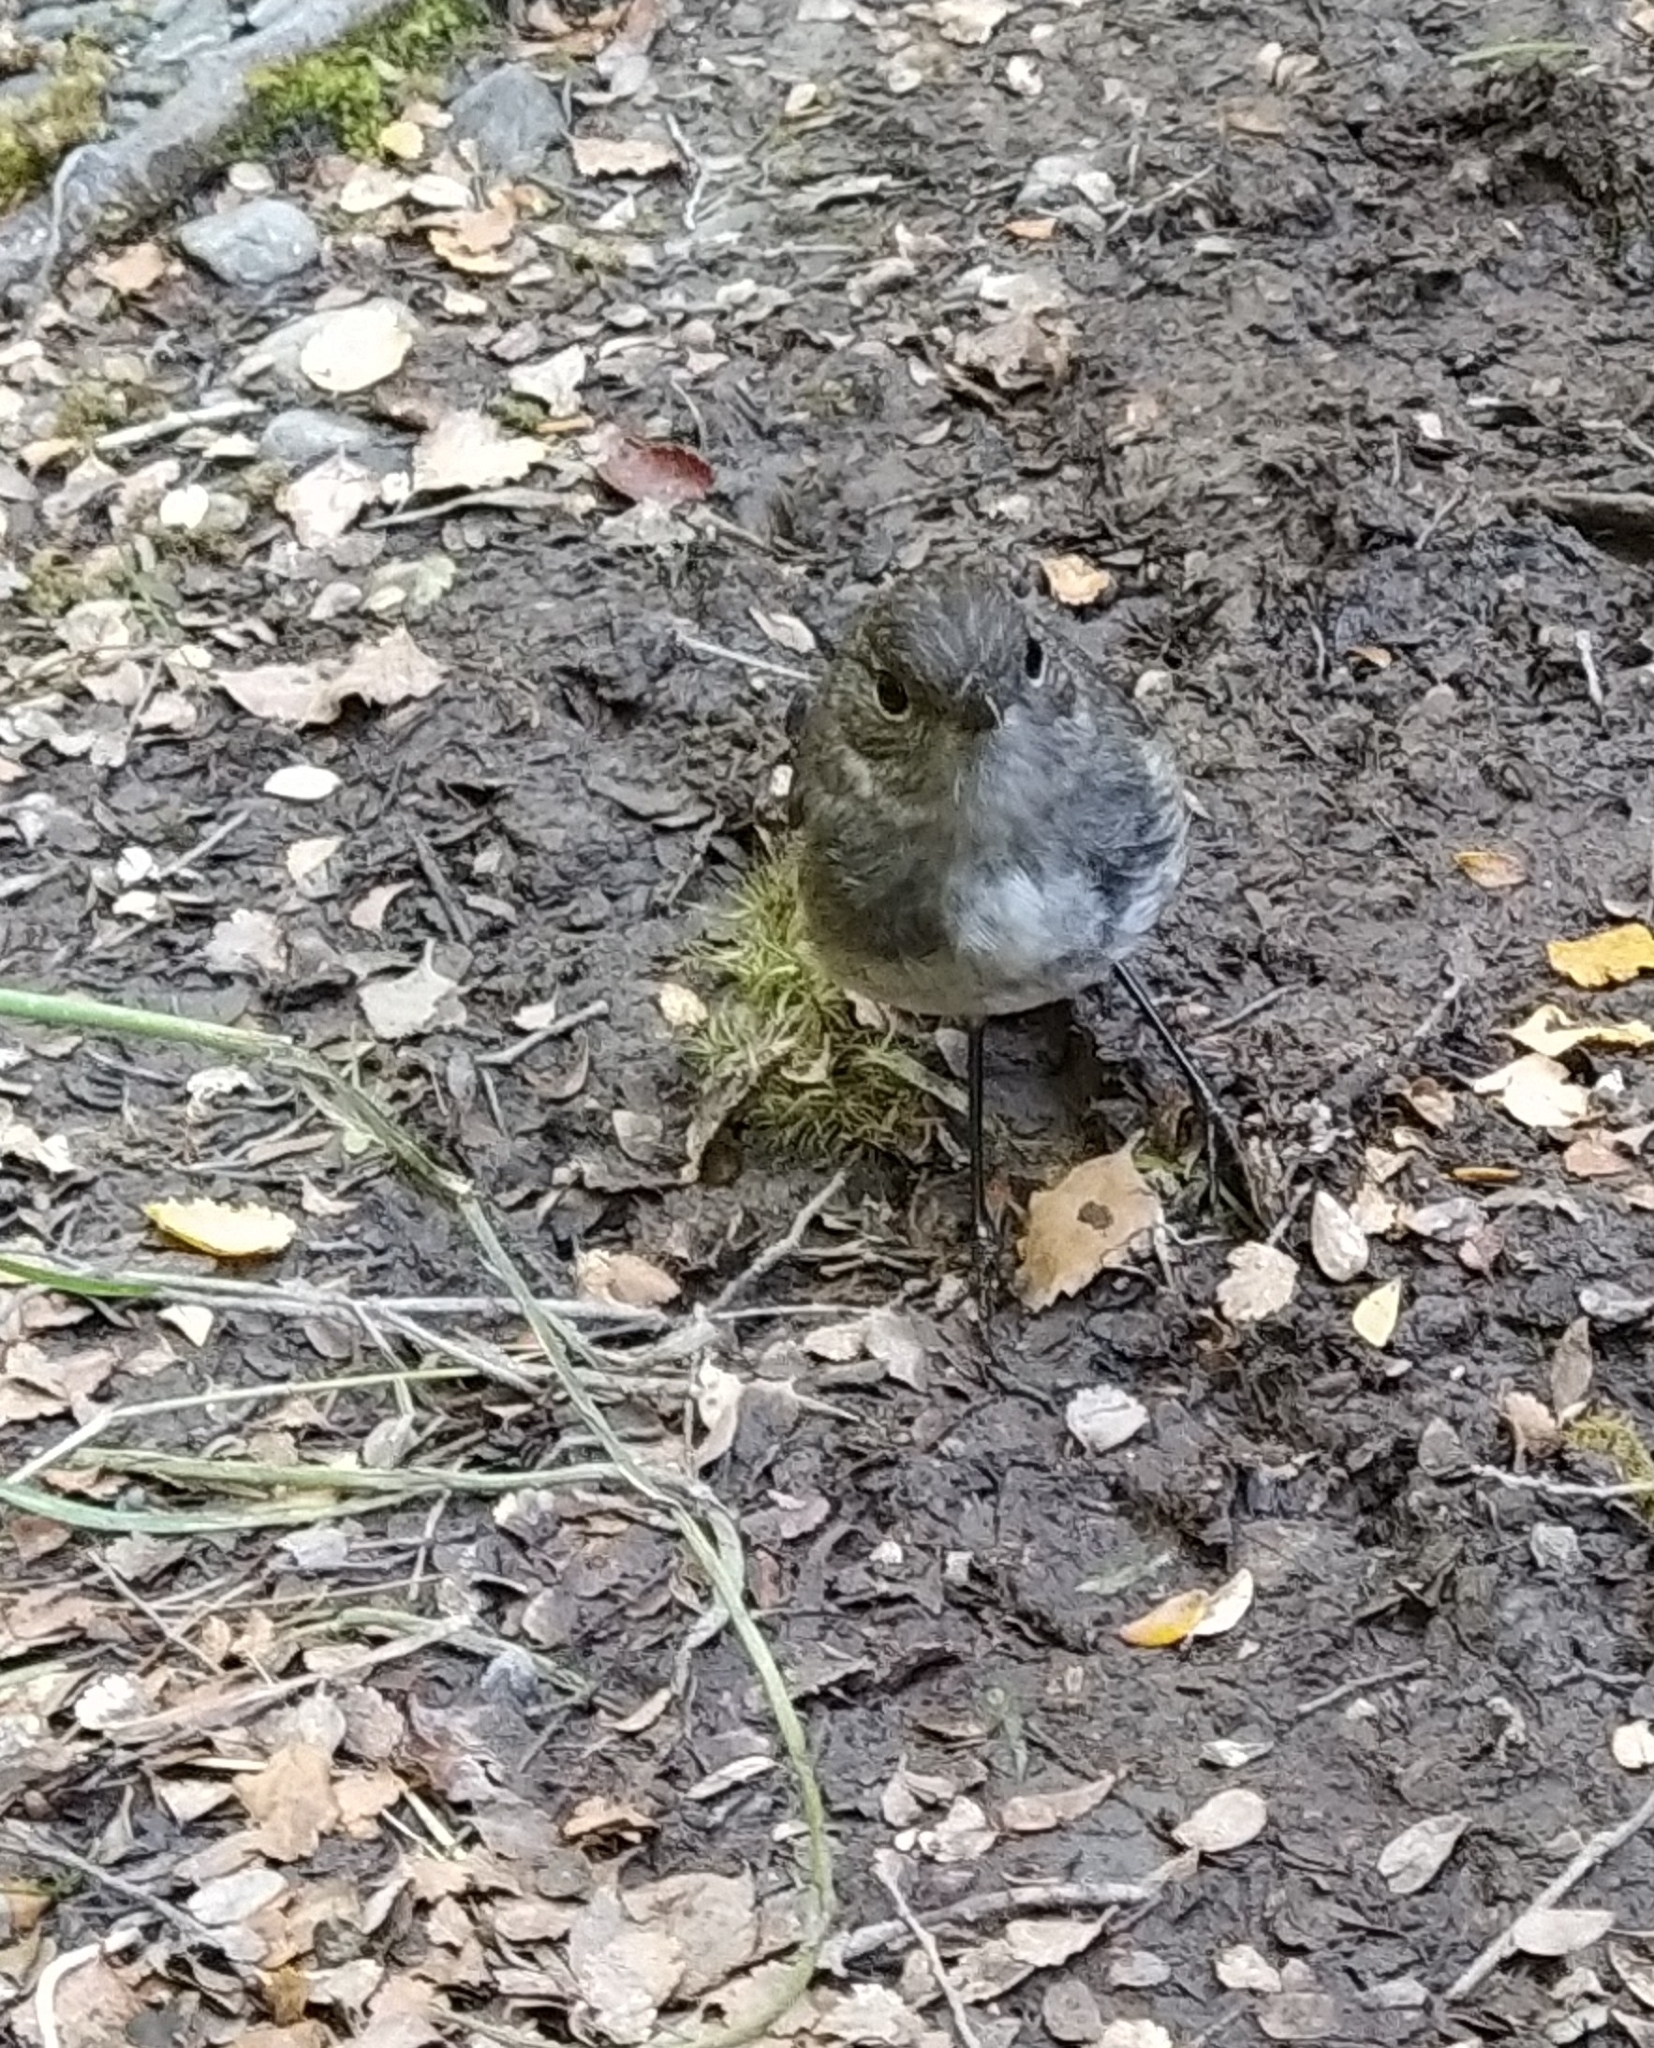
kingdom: Animalia
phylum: Chordata
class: Aves
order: Passeriformes
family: Petroicidae
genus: Petroica
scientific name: Petroica australis
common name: New zealand robin
